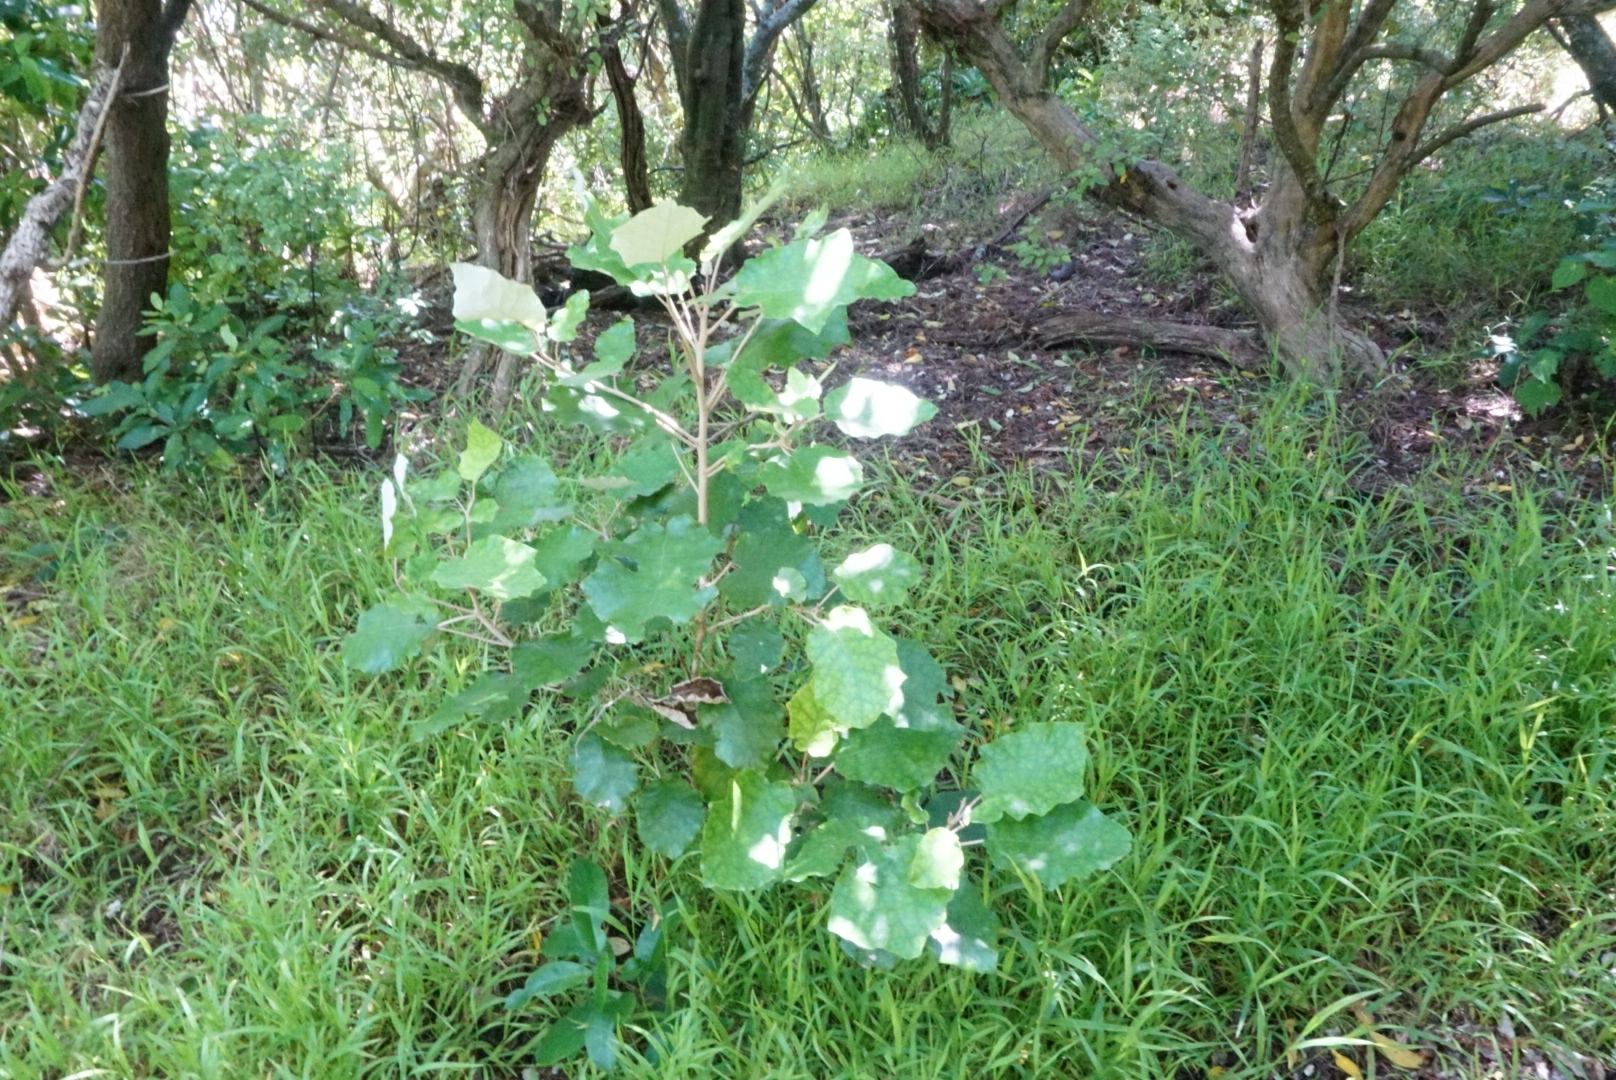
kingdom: Plantae
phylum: Tracheophyta
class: Magnoliopsida
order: Asterales
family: Asteraceae
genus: Brachyglottis
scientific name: Brachyglottis repanda
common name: Hedge ragwort
